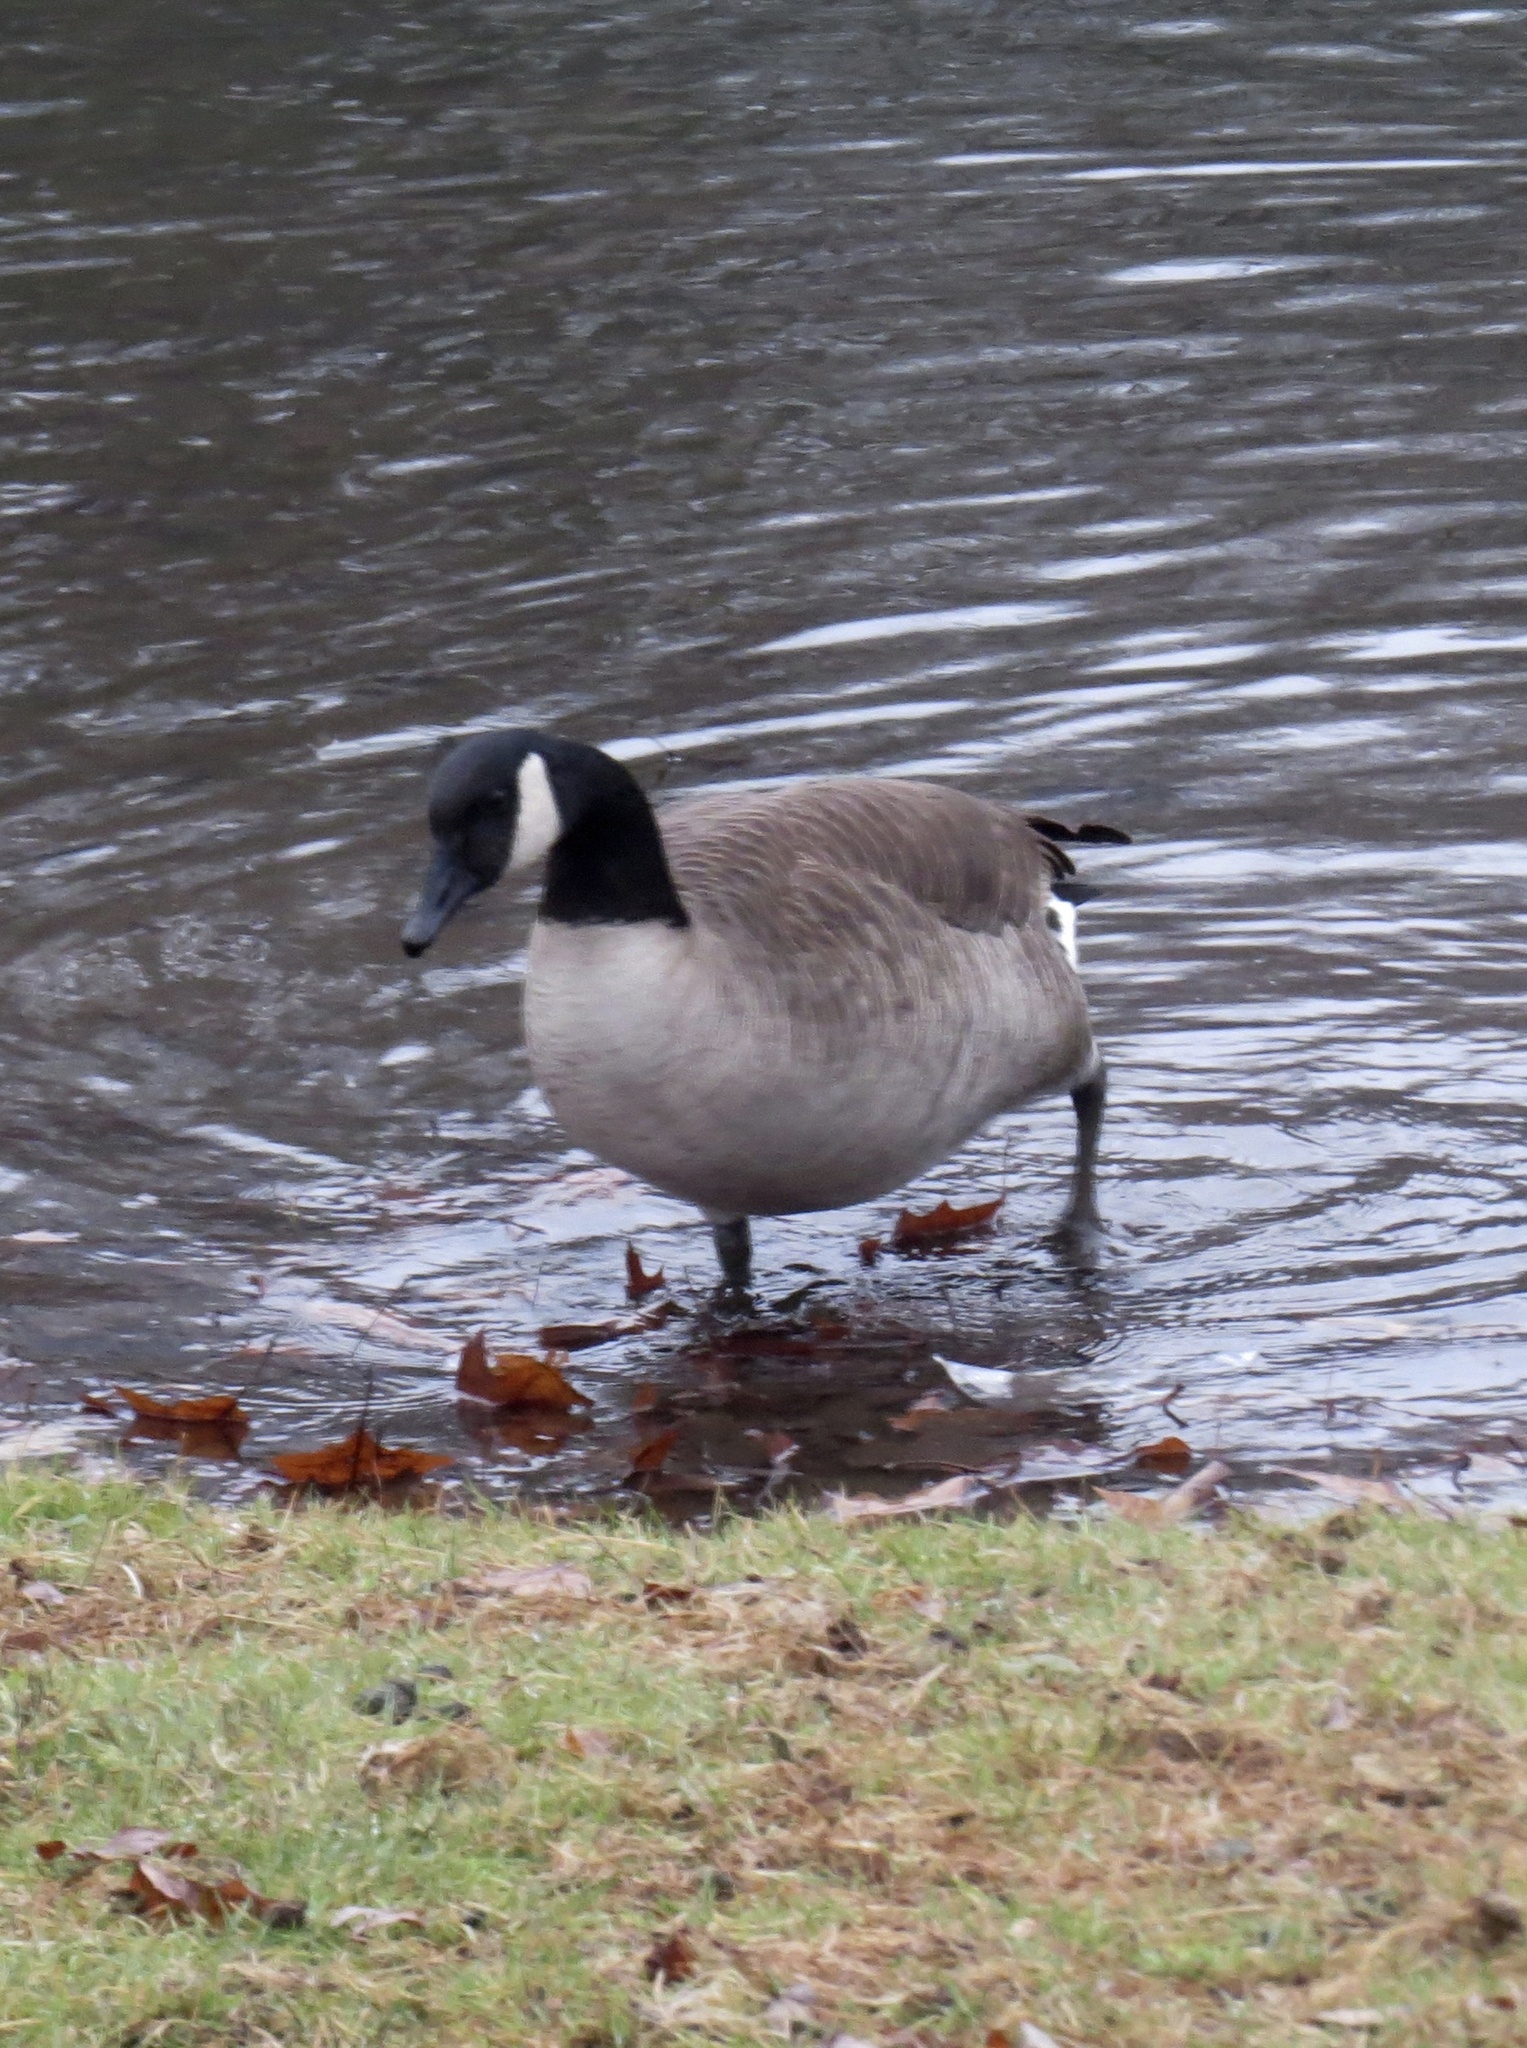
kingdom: Animalia
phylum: Chordata
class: Aves
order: Anseriformes
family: Anatidae
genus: Branta
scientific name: Branta canadensis
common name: Canada goose
